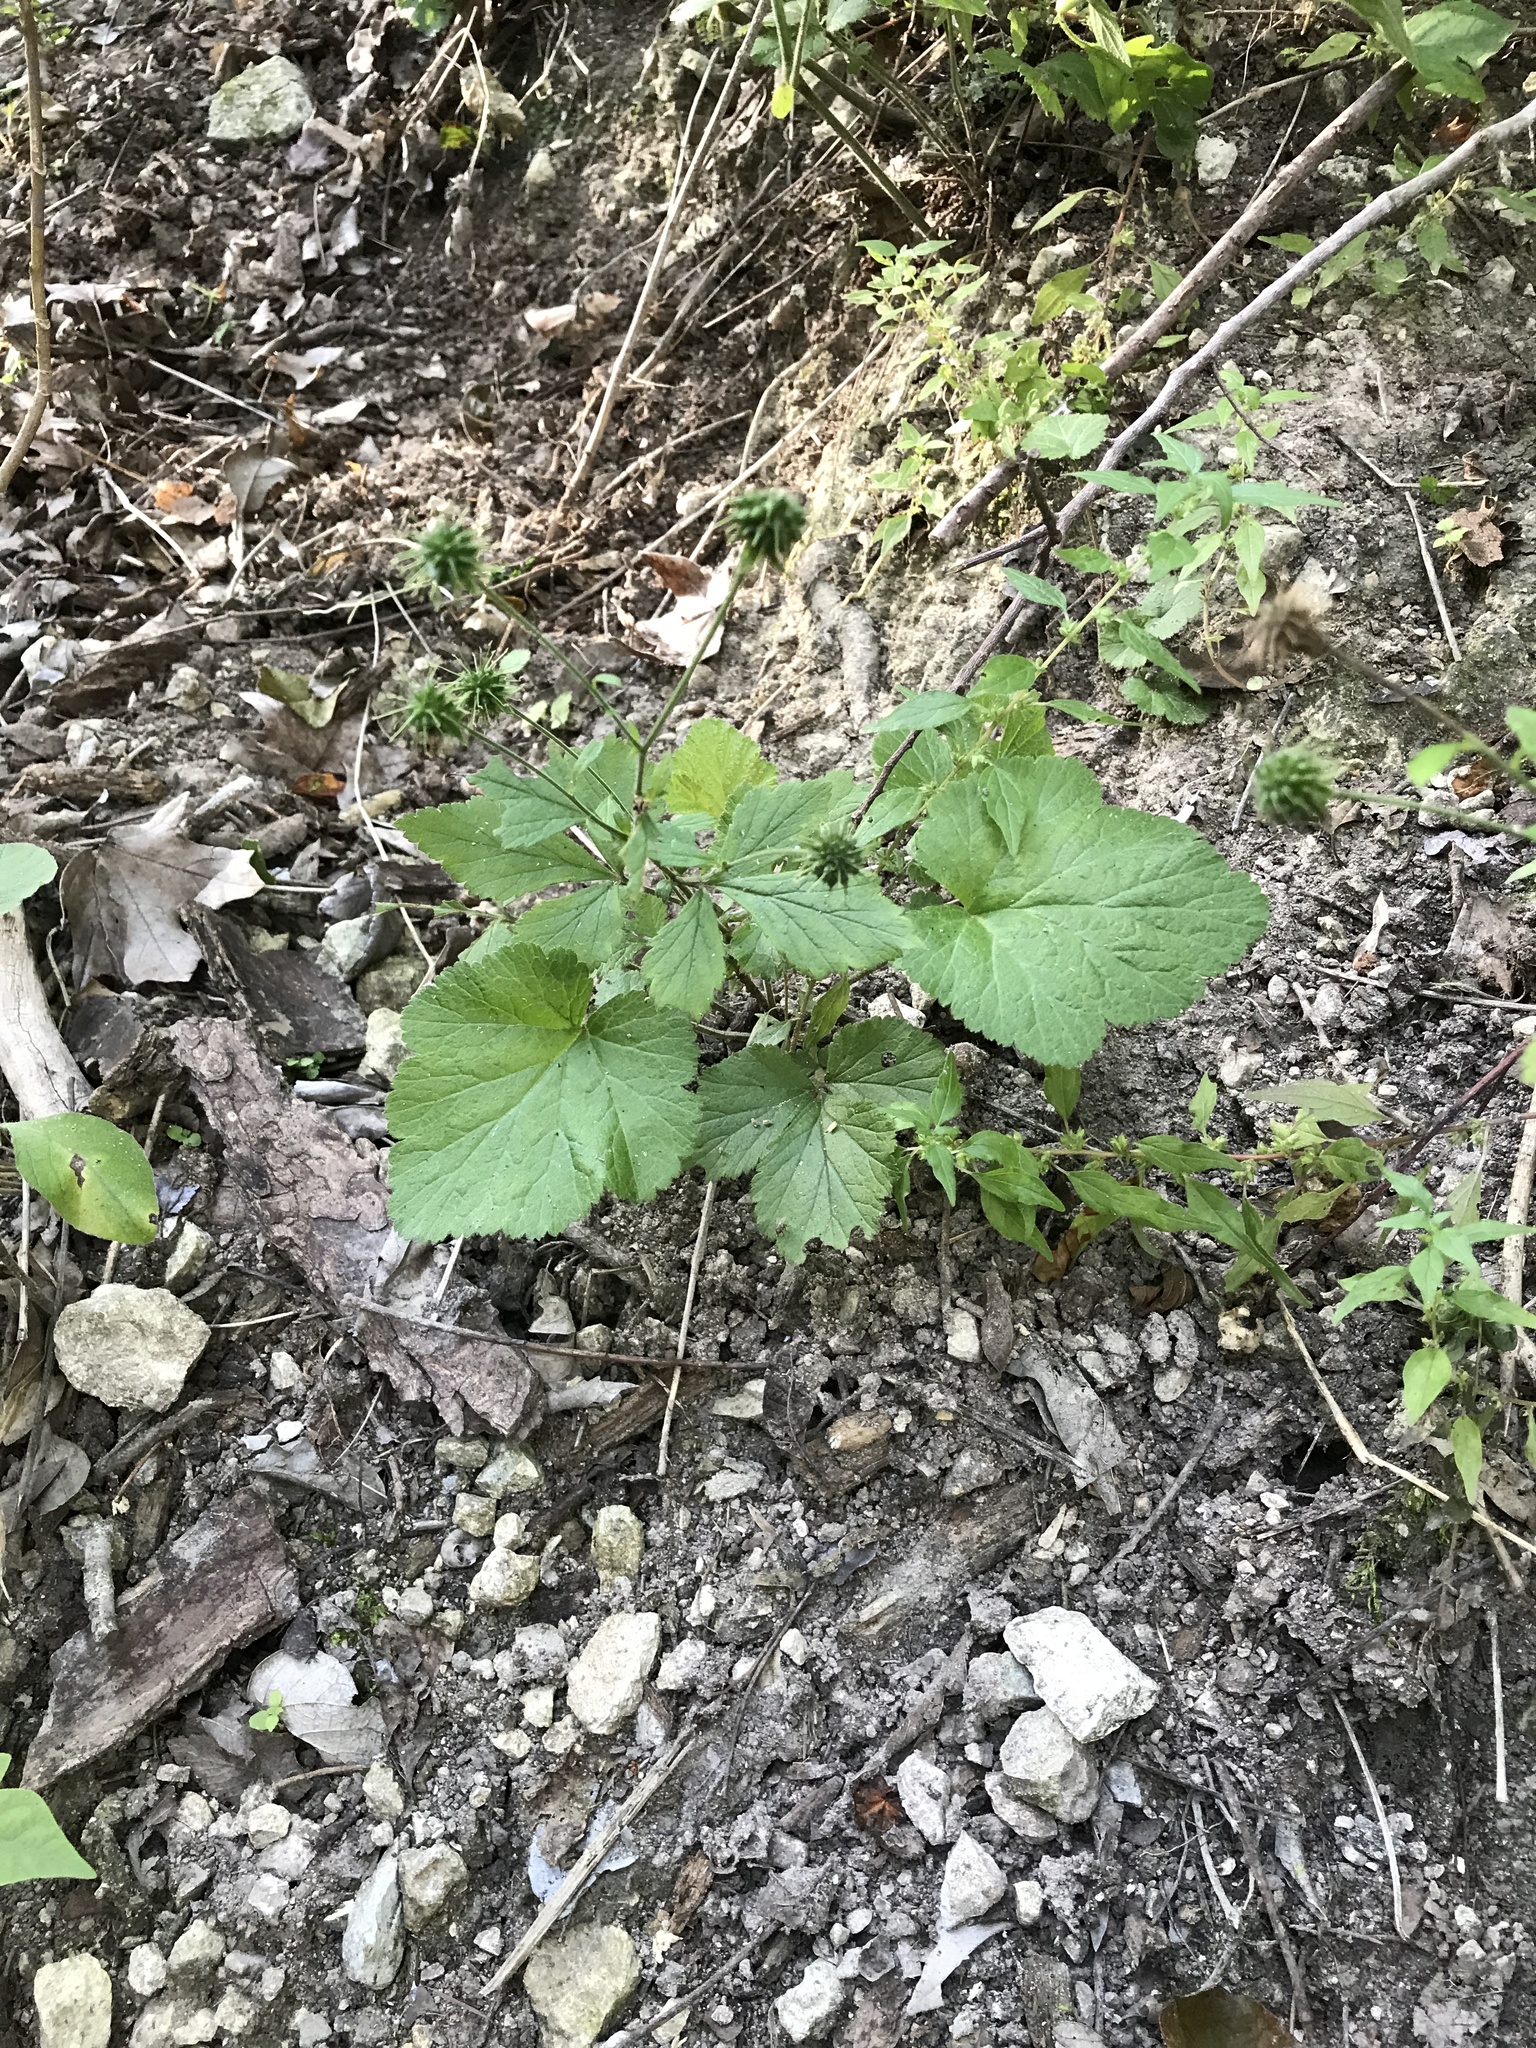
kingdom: Plantae
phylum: Tracheophyta
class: Magnoliopsida
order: Rosales
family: Rosaceae
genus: Geum
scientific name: Geum canadense
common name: White avens
